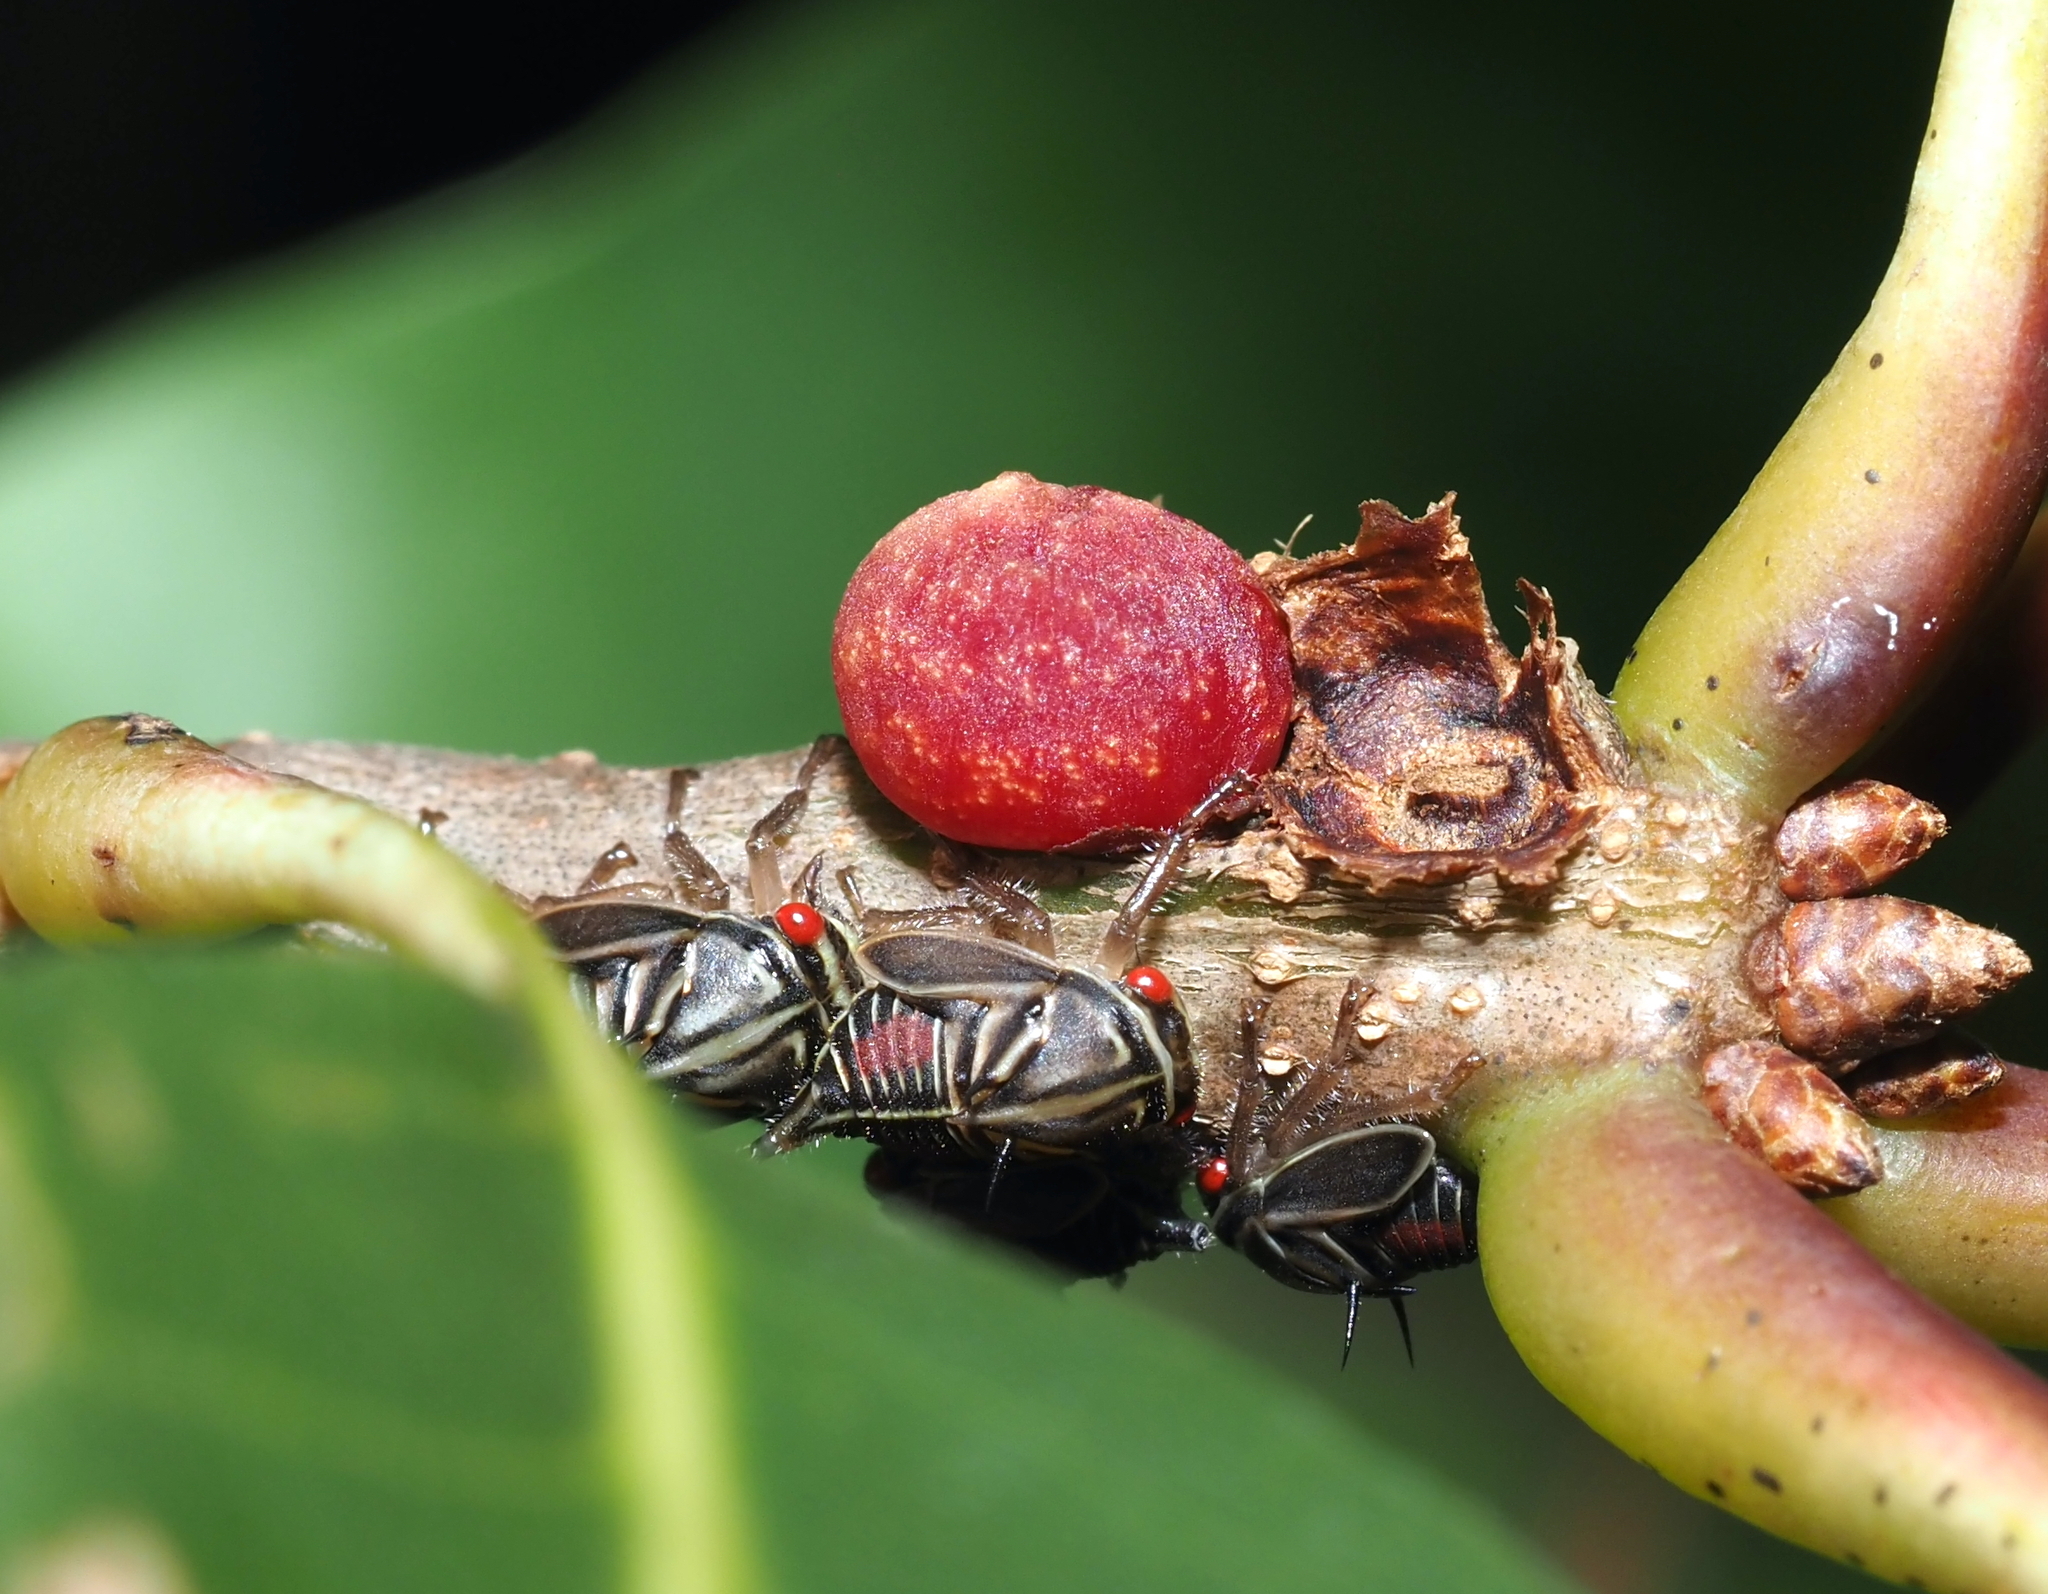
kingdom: Animalia
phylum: Arthropoda
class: Insecta
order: Hymenoptera
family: Cynipidae
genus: Kokkocynips
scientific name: Kokkocynips imbricariae
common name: Banded bullet gall wasp
